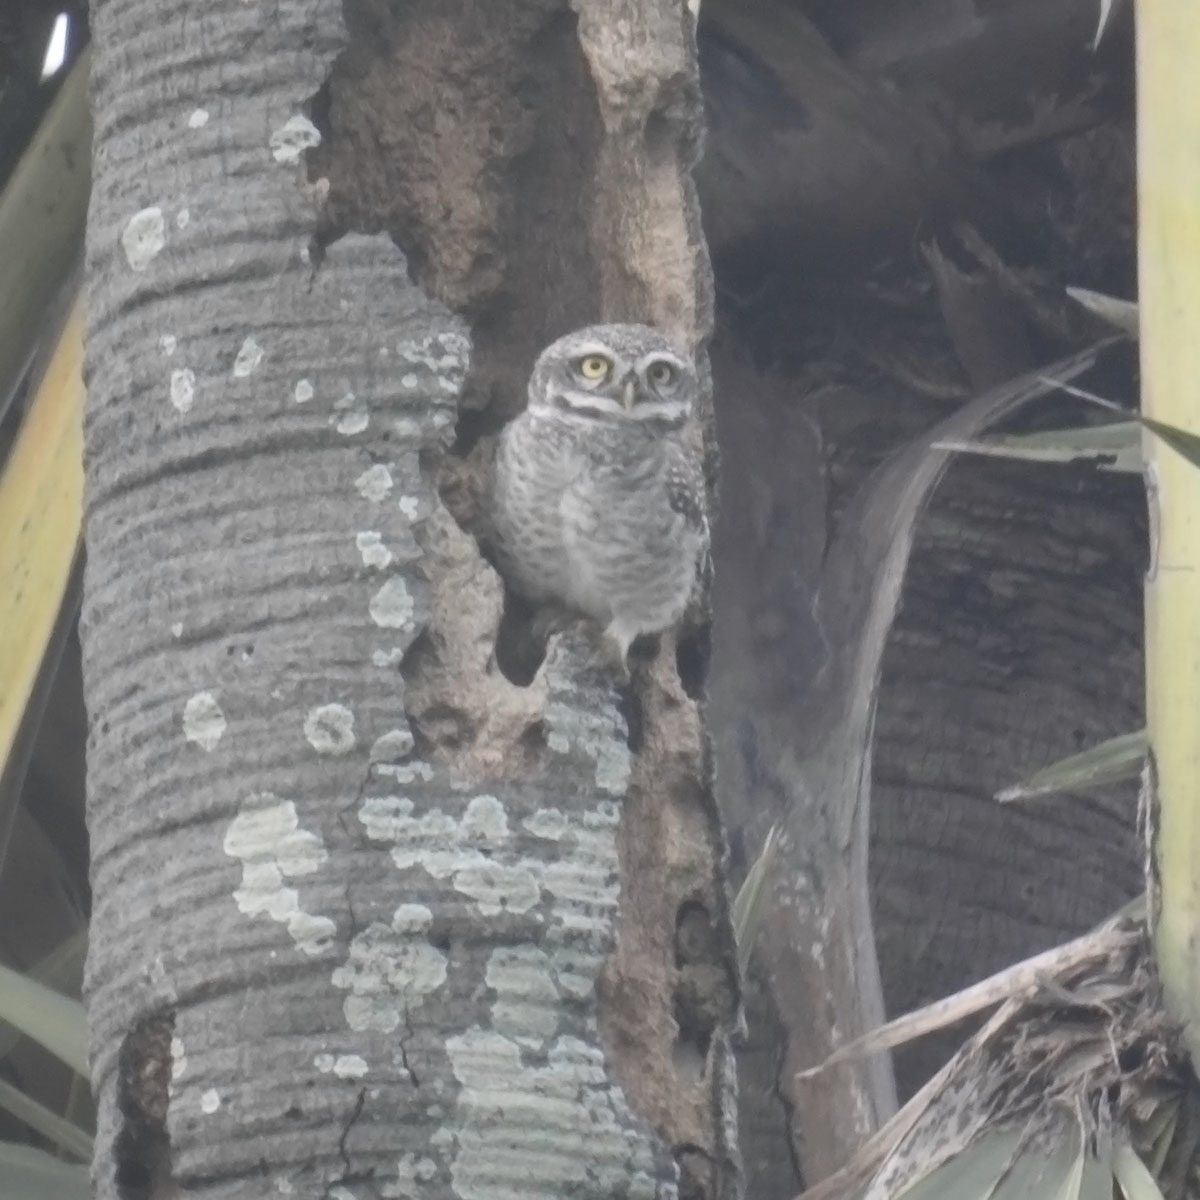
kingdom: Animalia
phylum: Chordata
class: Aves
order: Strigiformes
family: Strigidae
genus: Athene
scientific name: Athene brama
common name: Spotted owlet
